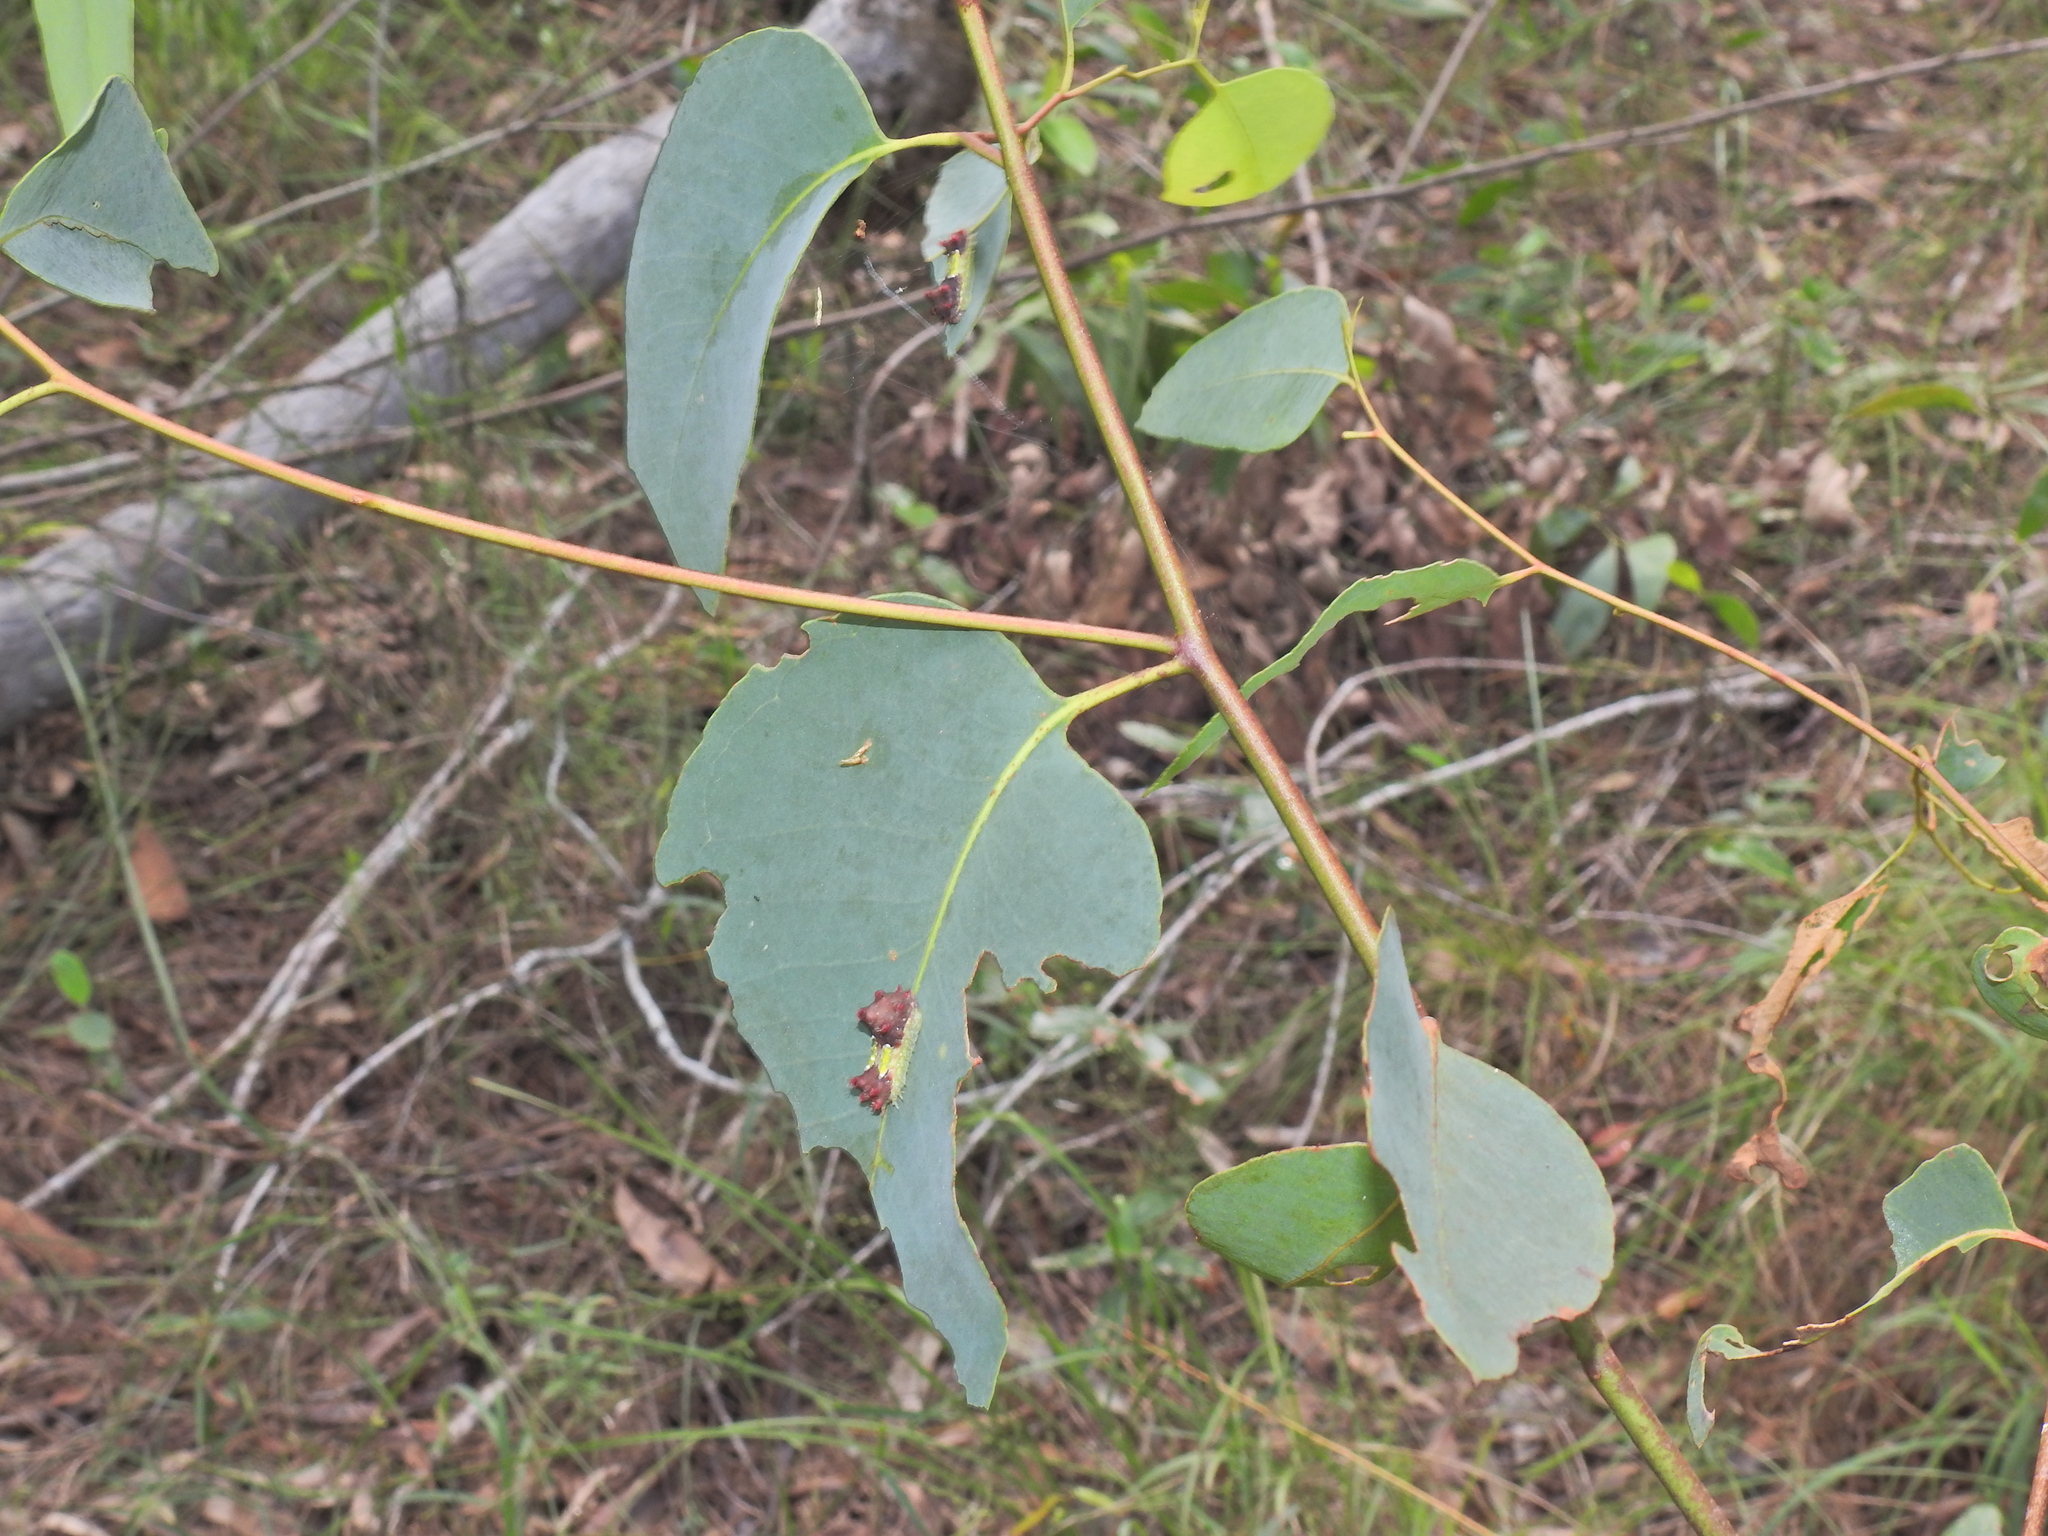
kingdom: Animalia
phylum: Arthropoda
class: Insecta
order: Lepidoptera
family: Limacodidae
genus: Doratifera
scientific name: Doratifera vulnerans
